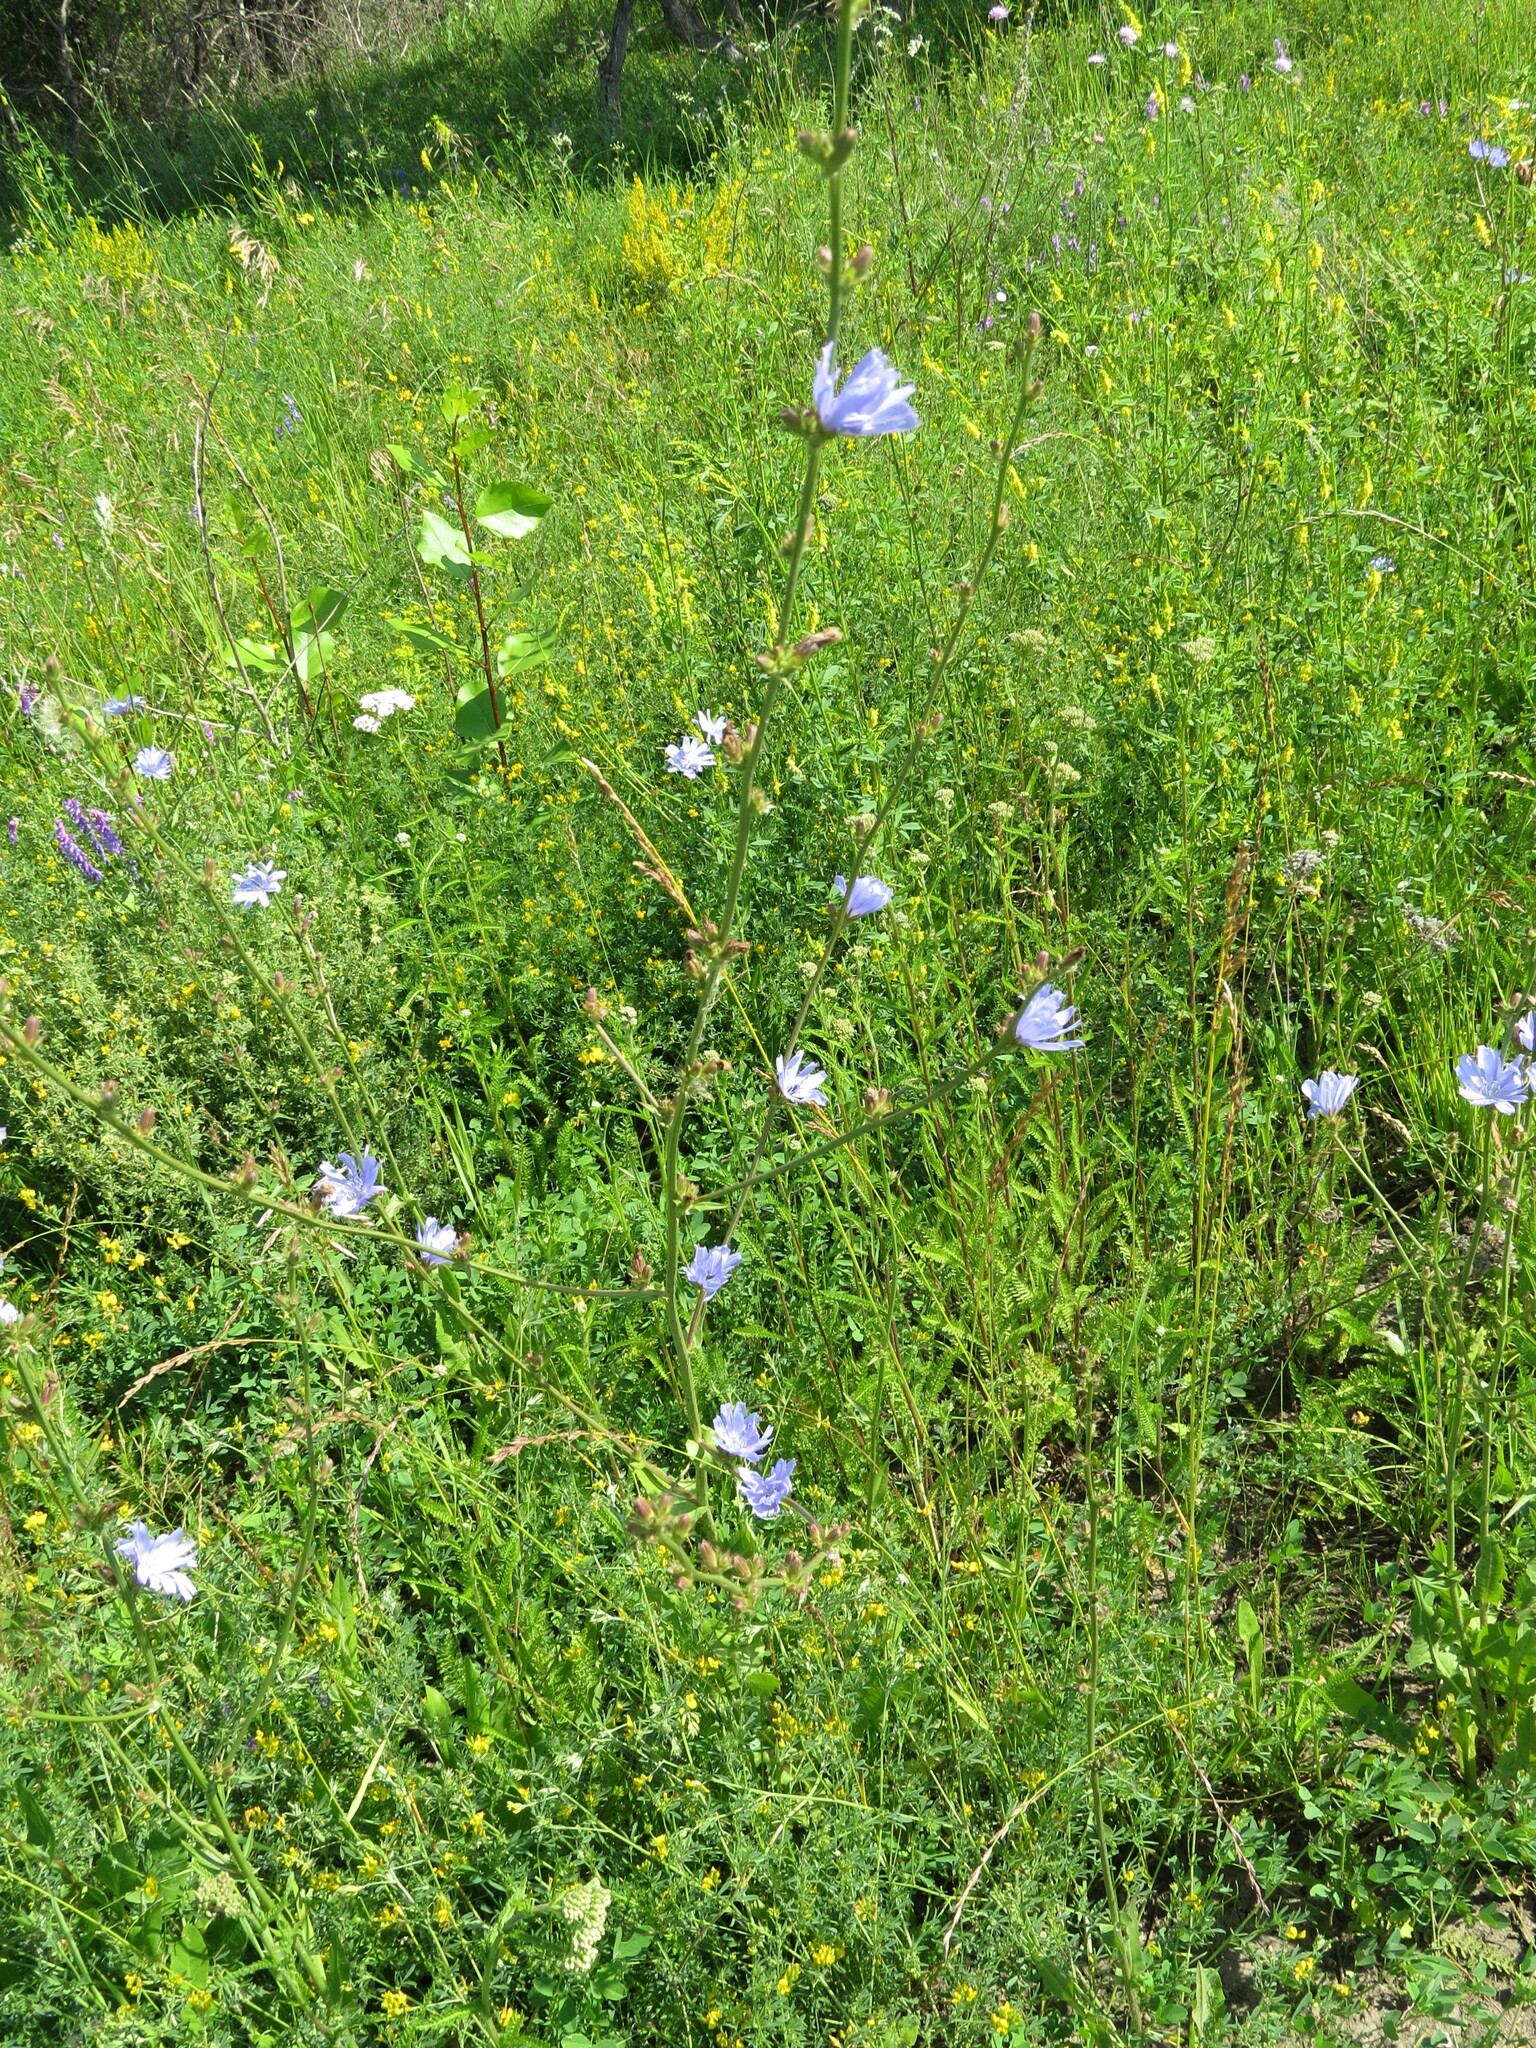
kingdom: Plantae
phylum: Tracheophyta
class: Magnoliopsida
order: Asterales
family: Asteraceae
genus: Cichorium
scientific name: Cichorium intybus
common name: Chicory
